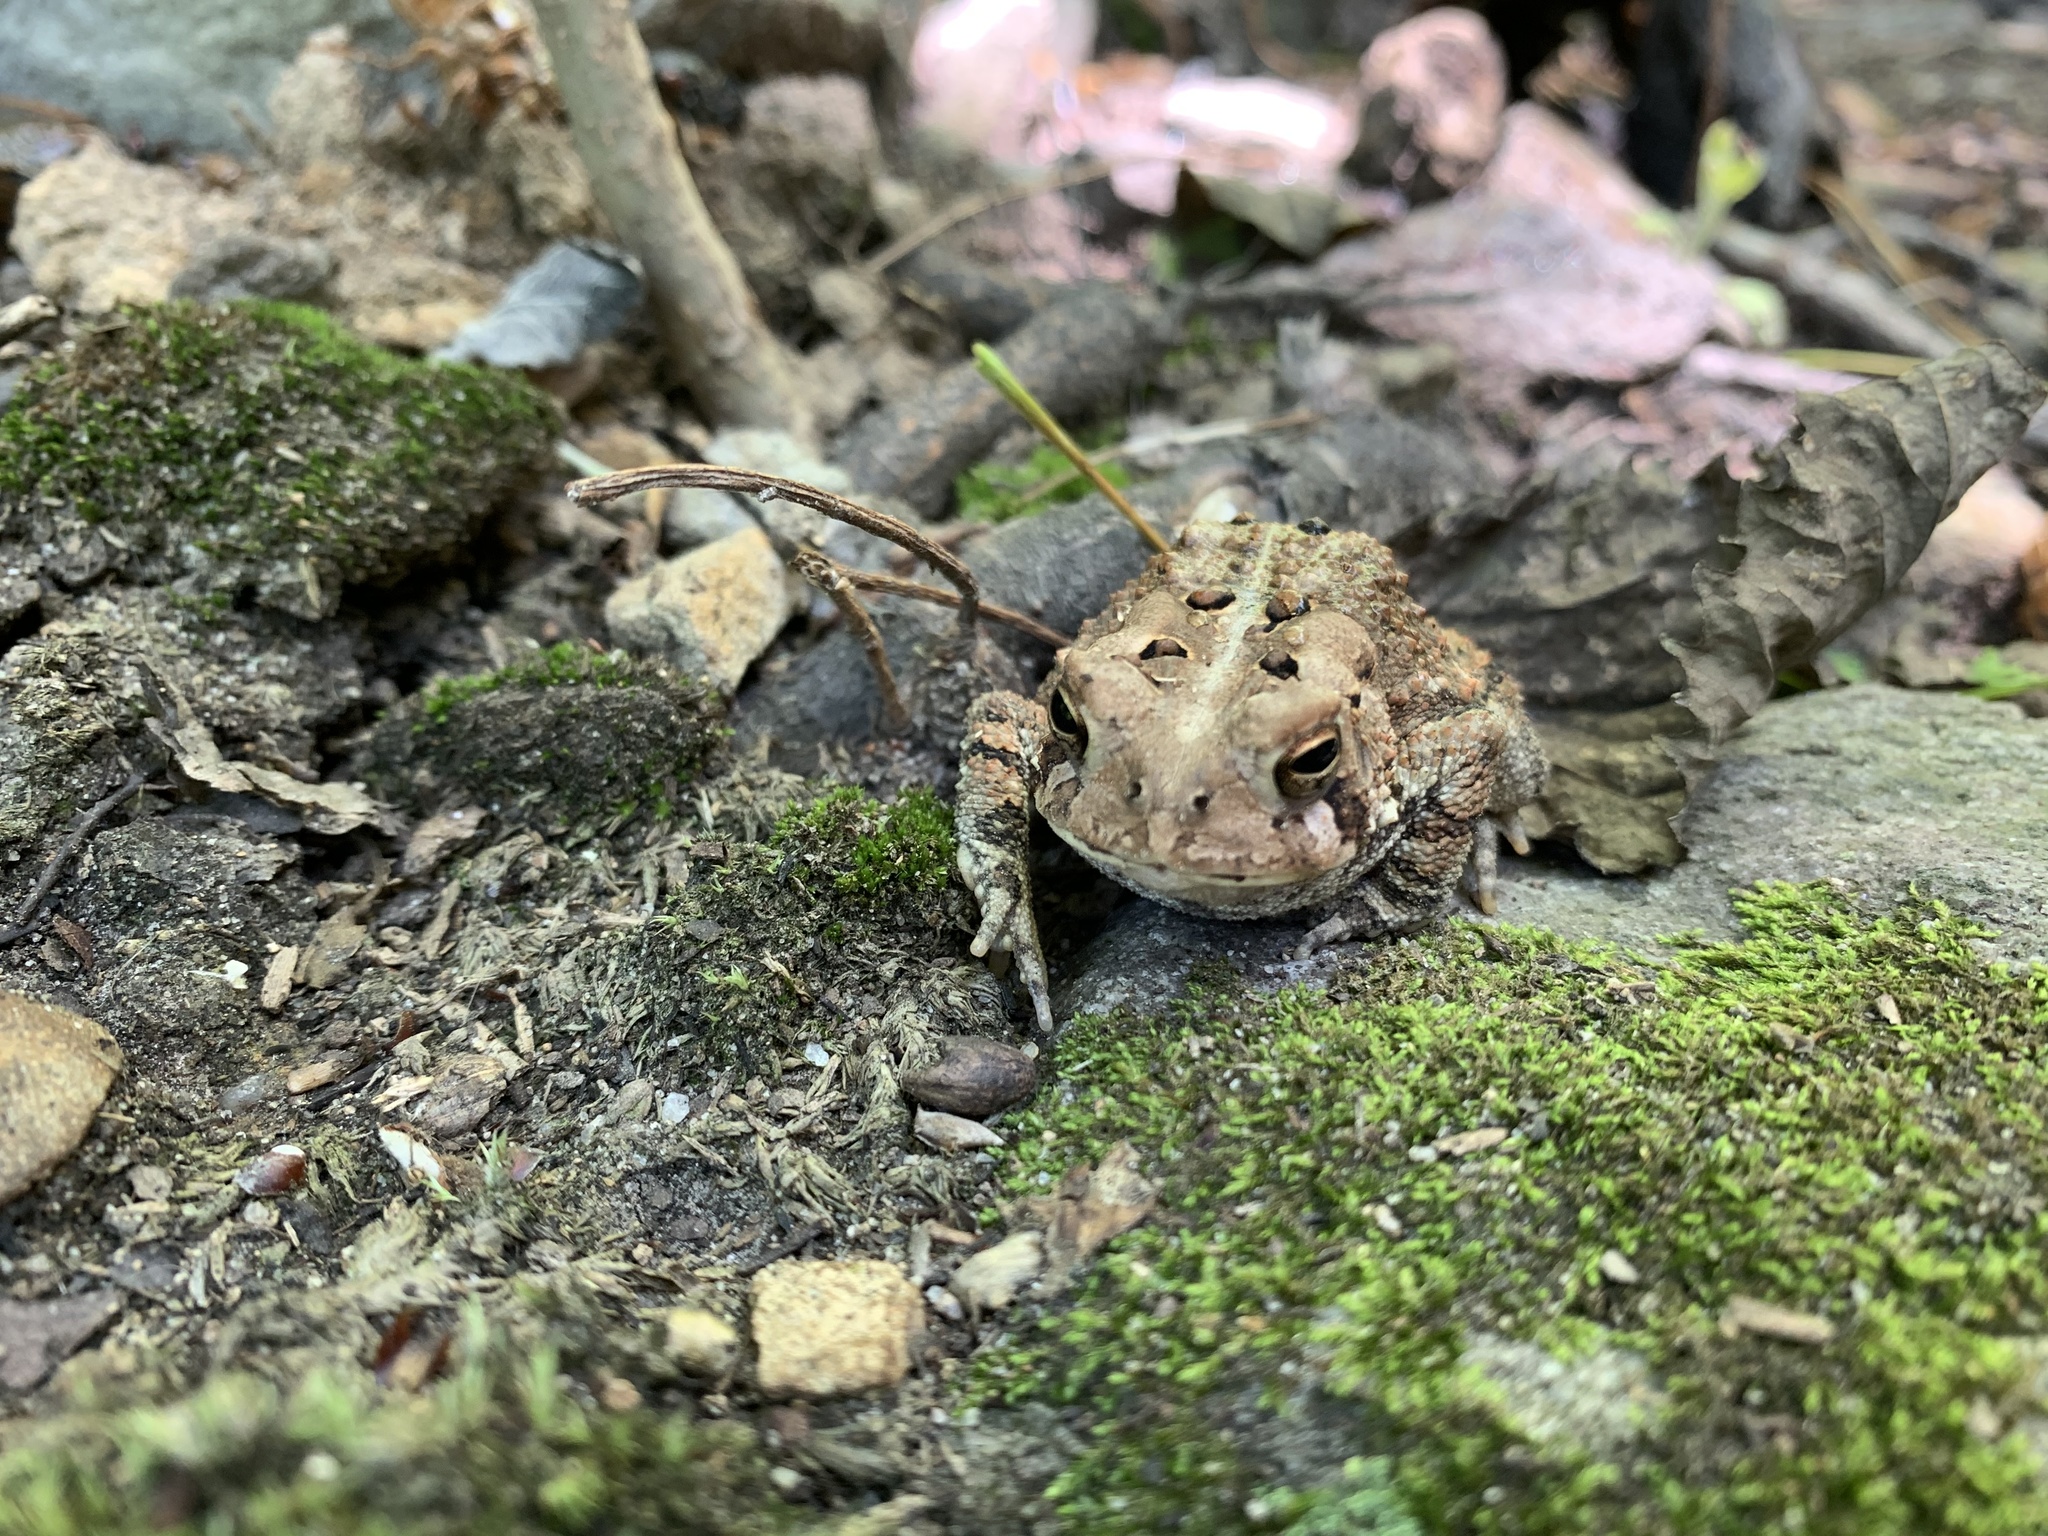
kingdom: Animalia
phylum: Chordata
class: Amphibia
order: Anura
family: Bufonidae
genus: Anaxyrus
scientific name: Anaxyrus americanus
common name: American toad
